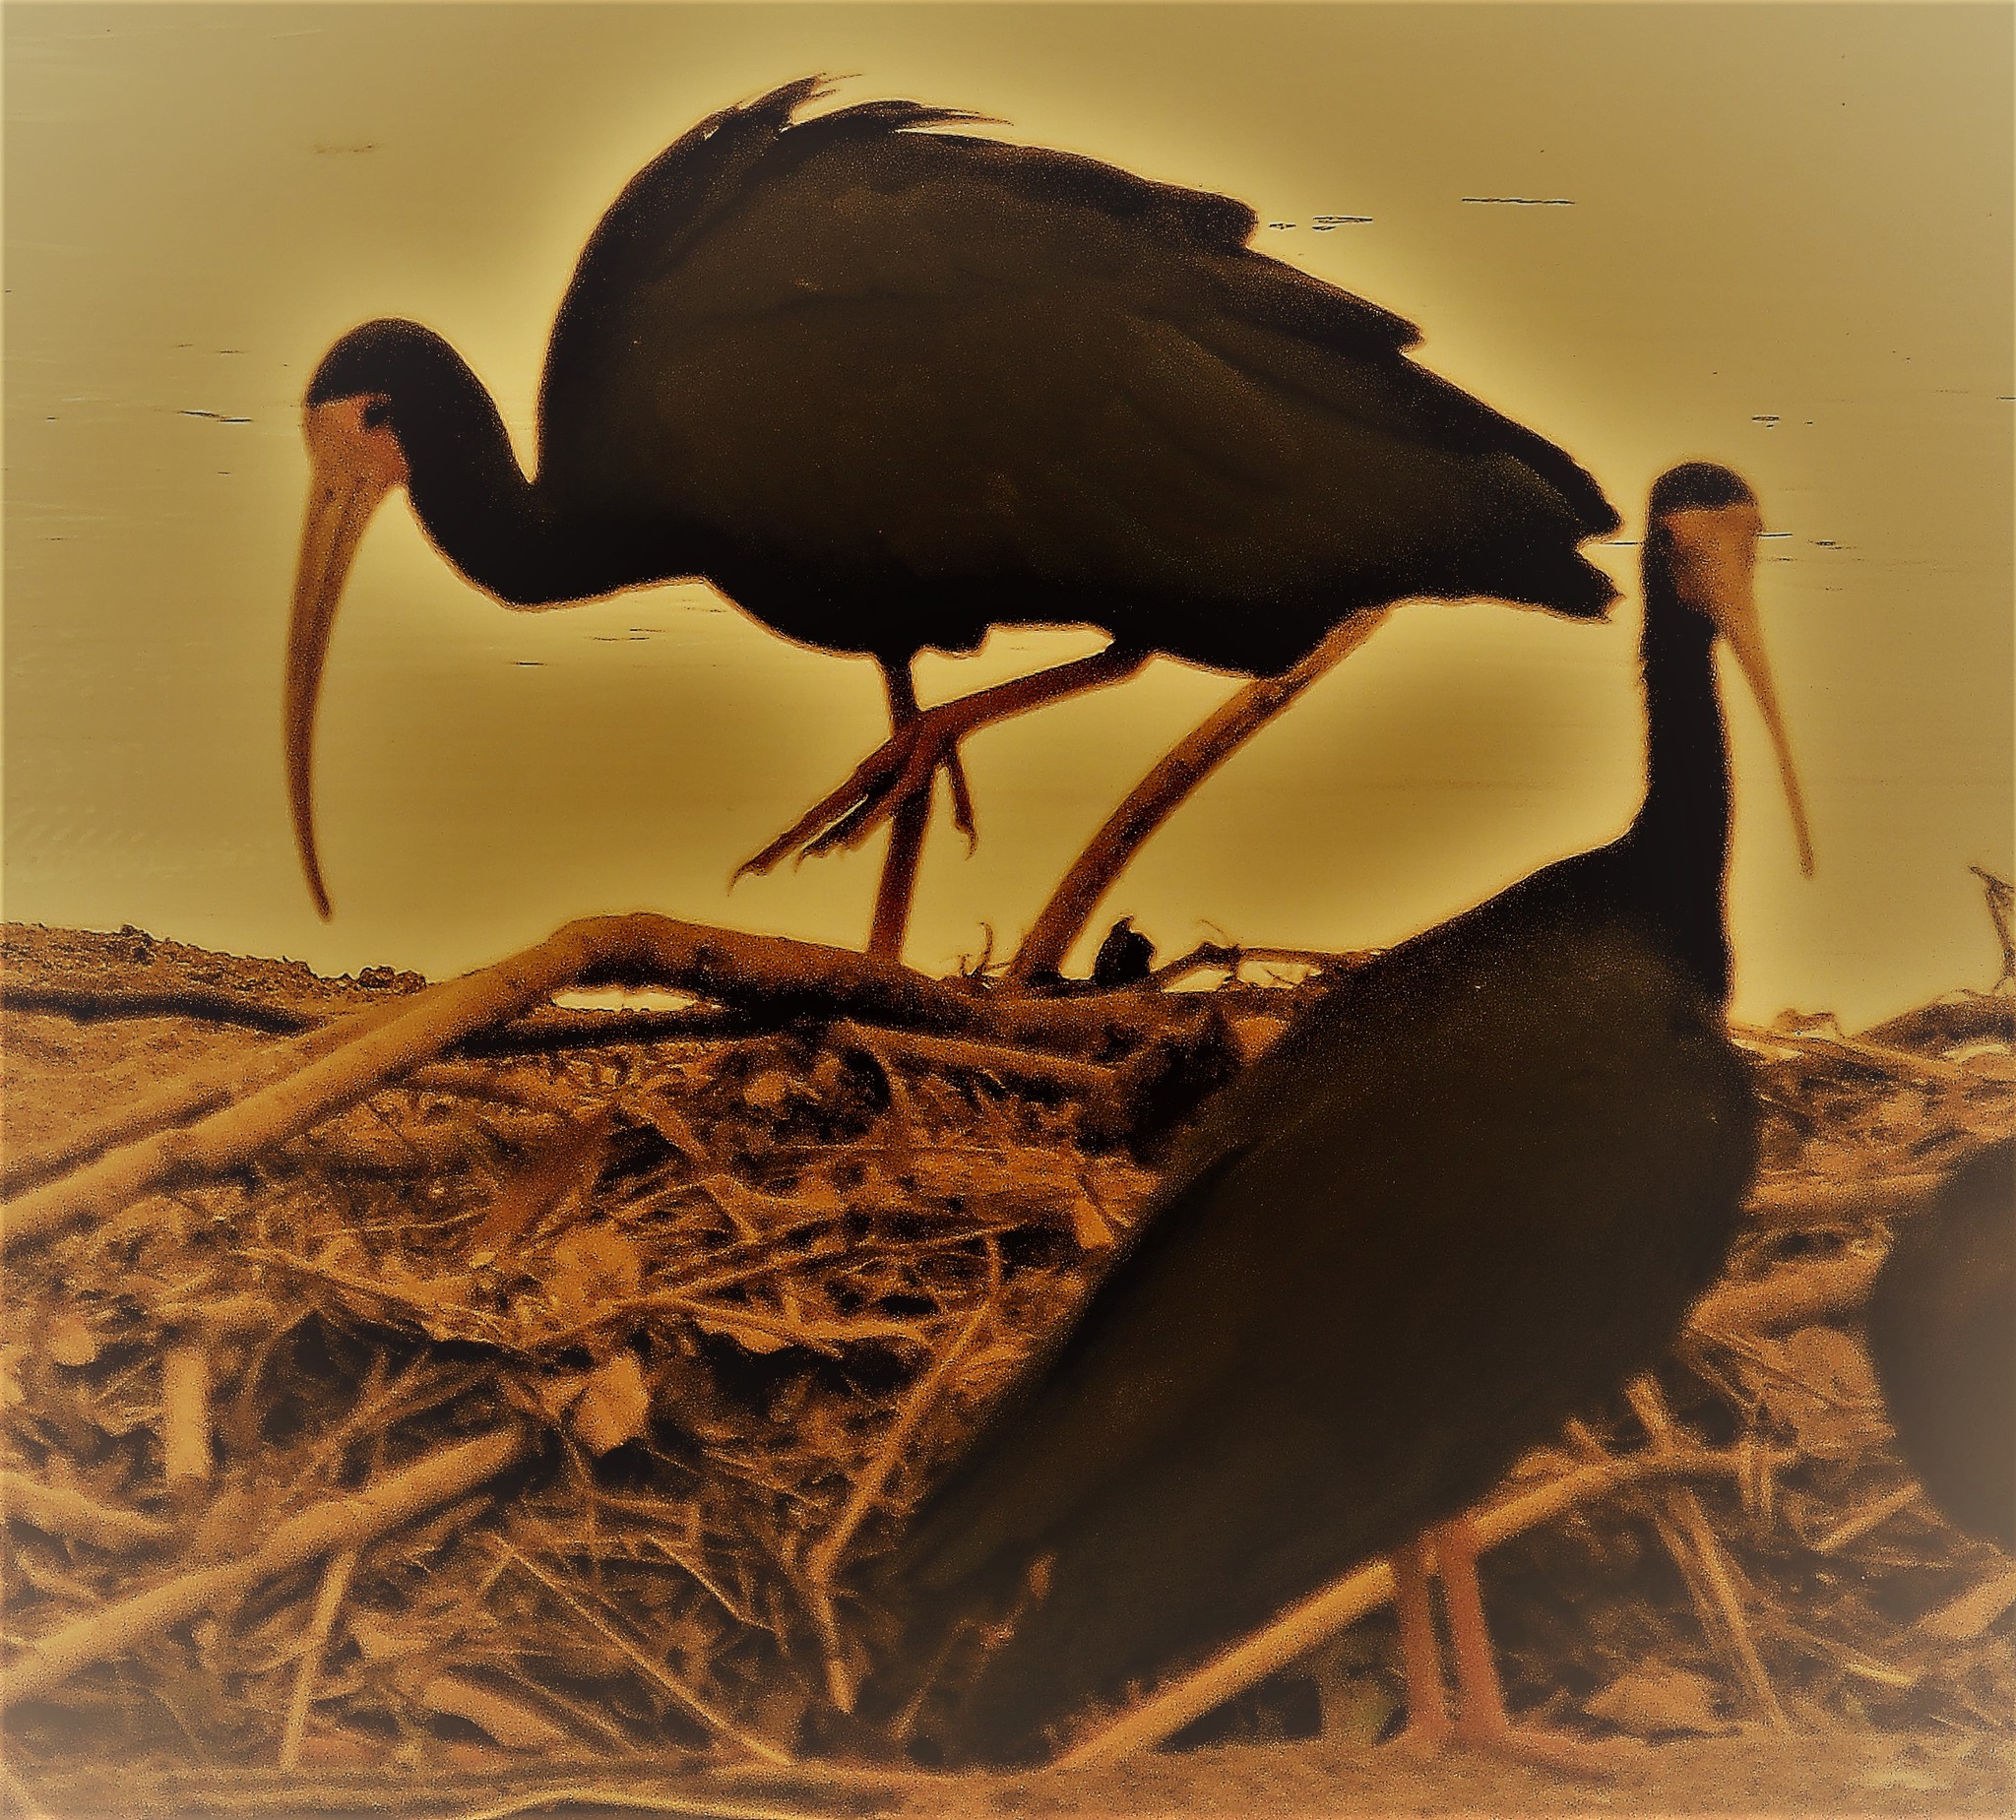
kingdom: Animalia
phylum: Chordata
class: Aves
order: Pelecaniformes
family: Threskiornithidae
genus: Phimosus
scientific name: Phimosus infuscatus
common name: Bare-faced ibis
